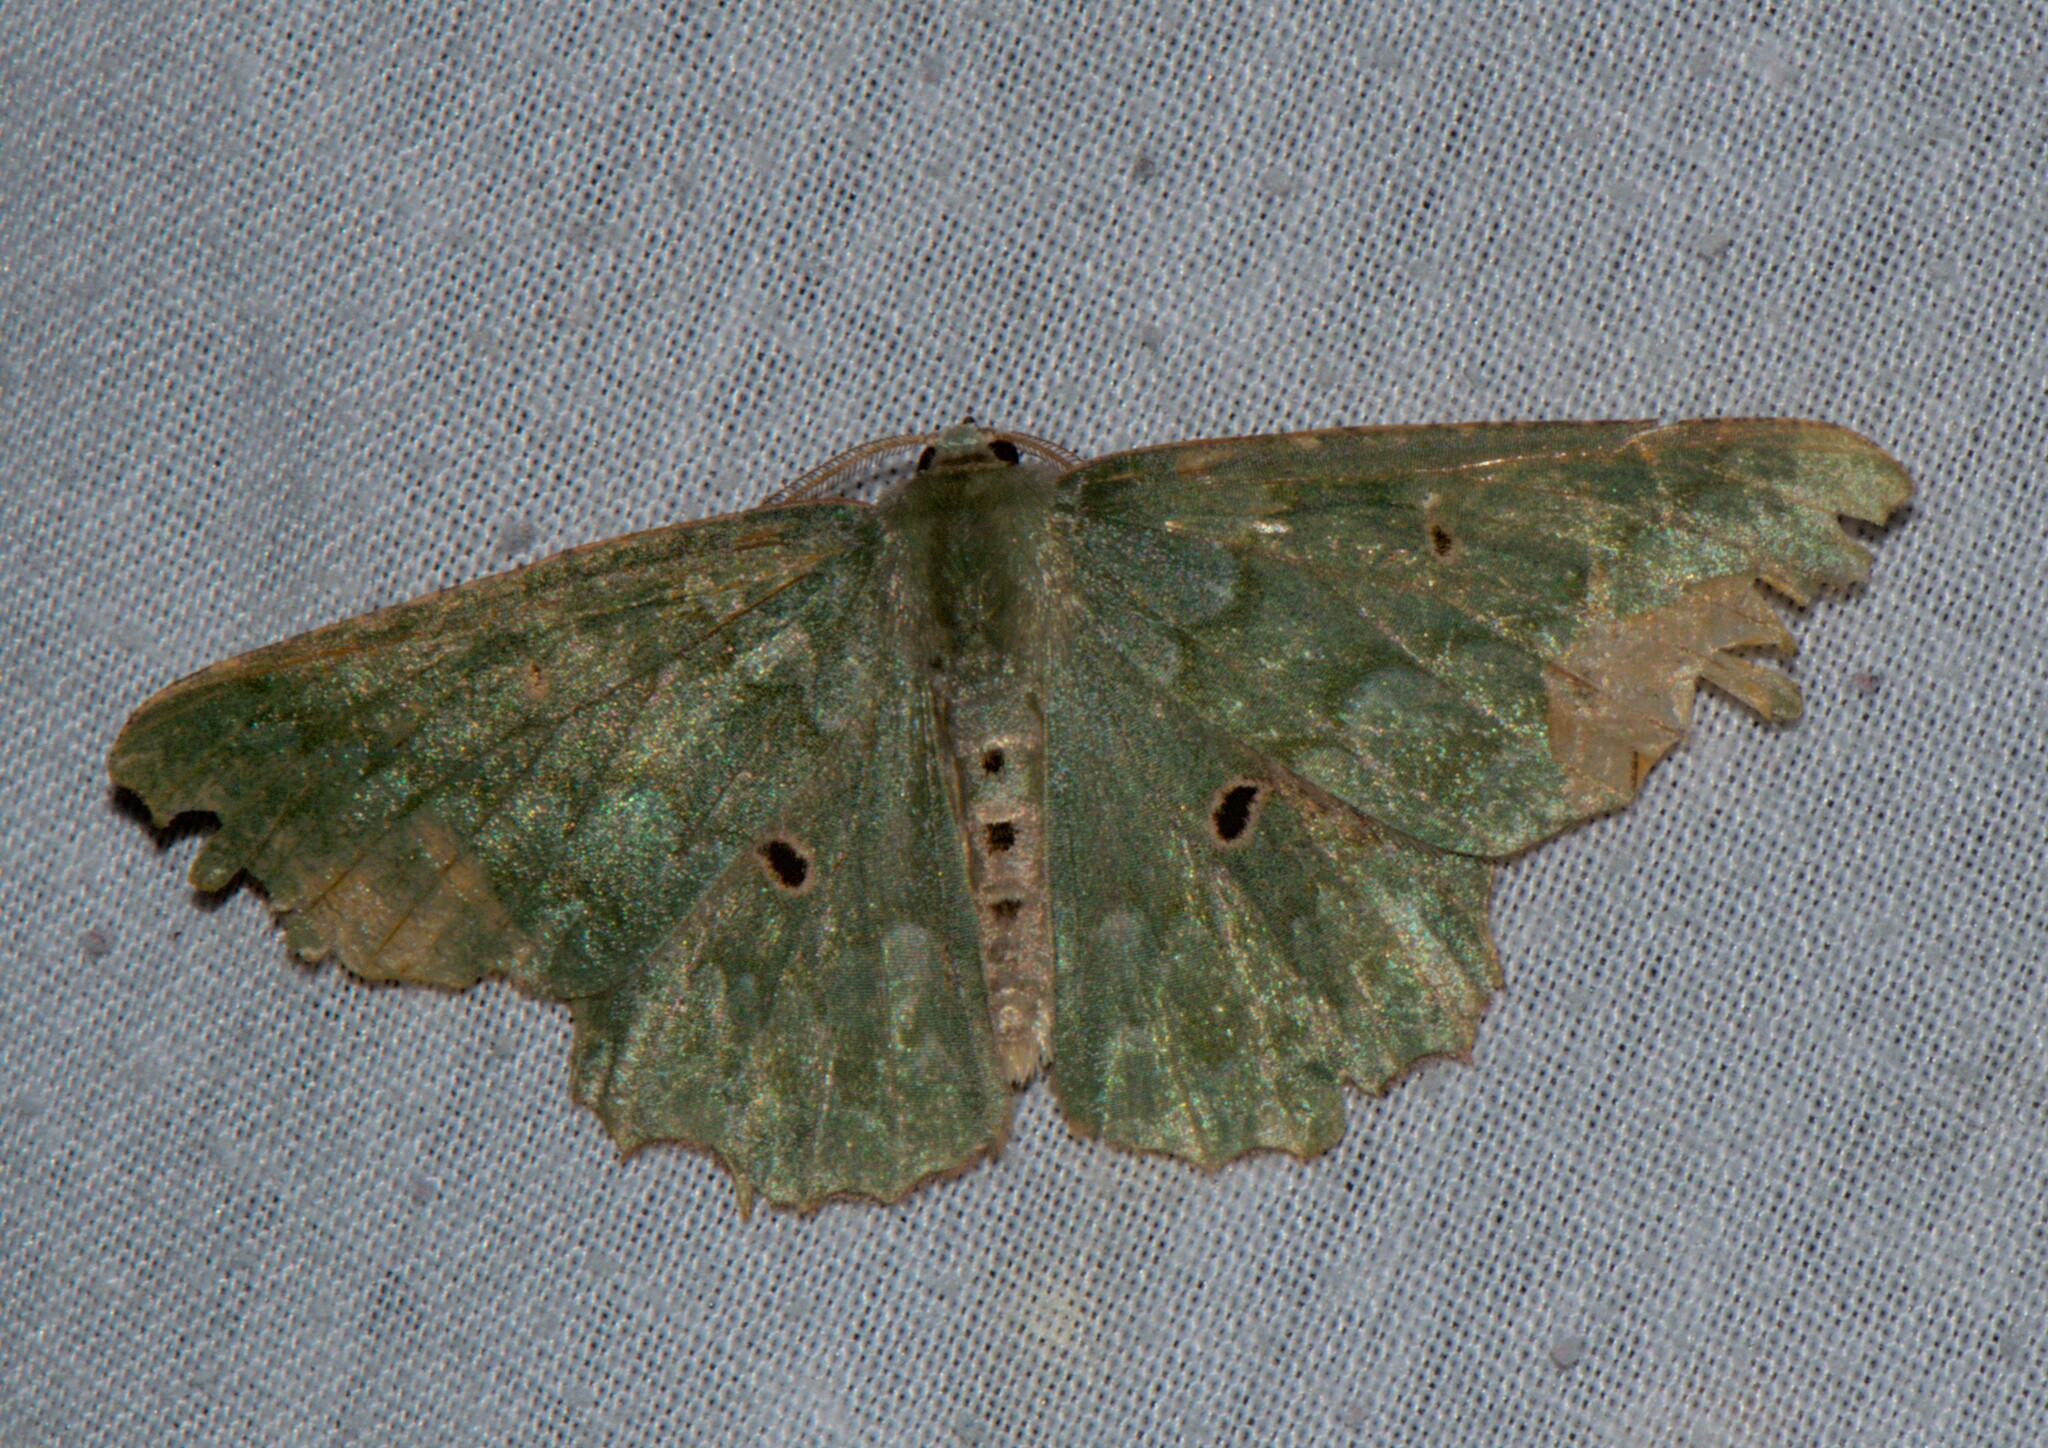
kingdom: Animalia
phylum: Arthropoda
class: Insecta
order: Lepidoptera
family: Geometridae
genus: Chlorodontopera
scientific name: Chlorodontopera discospilata
